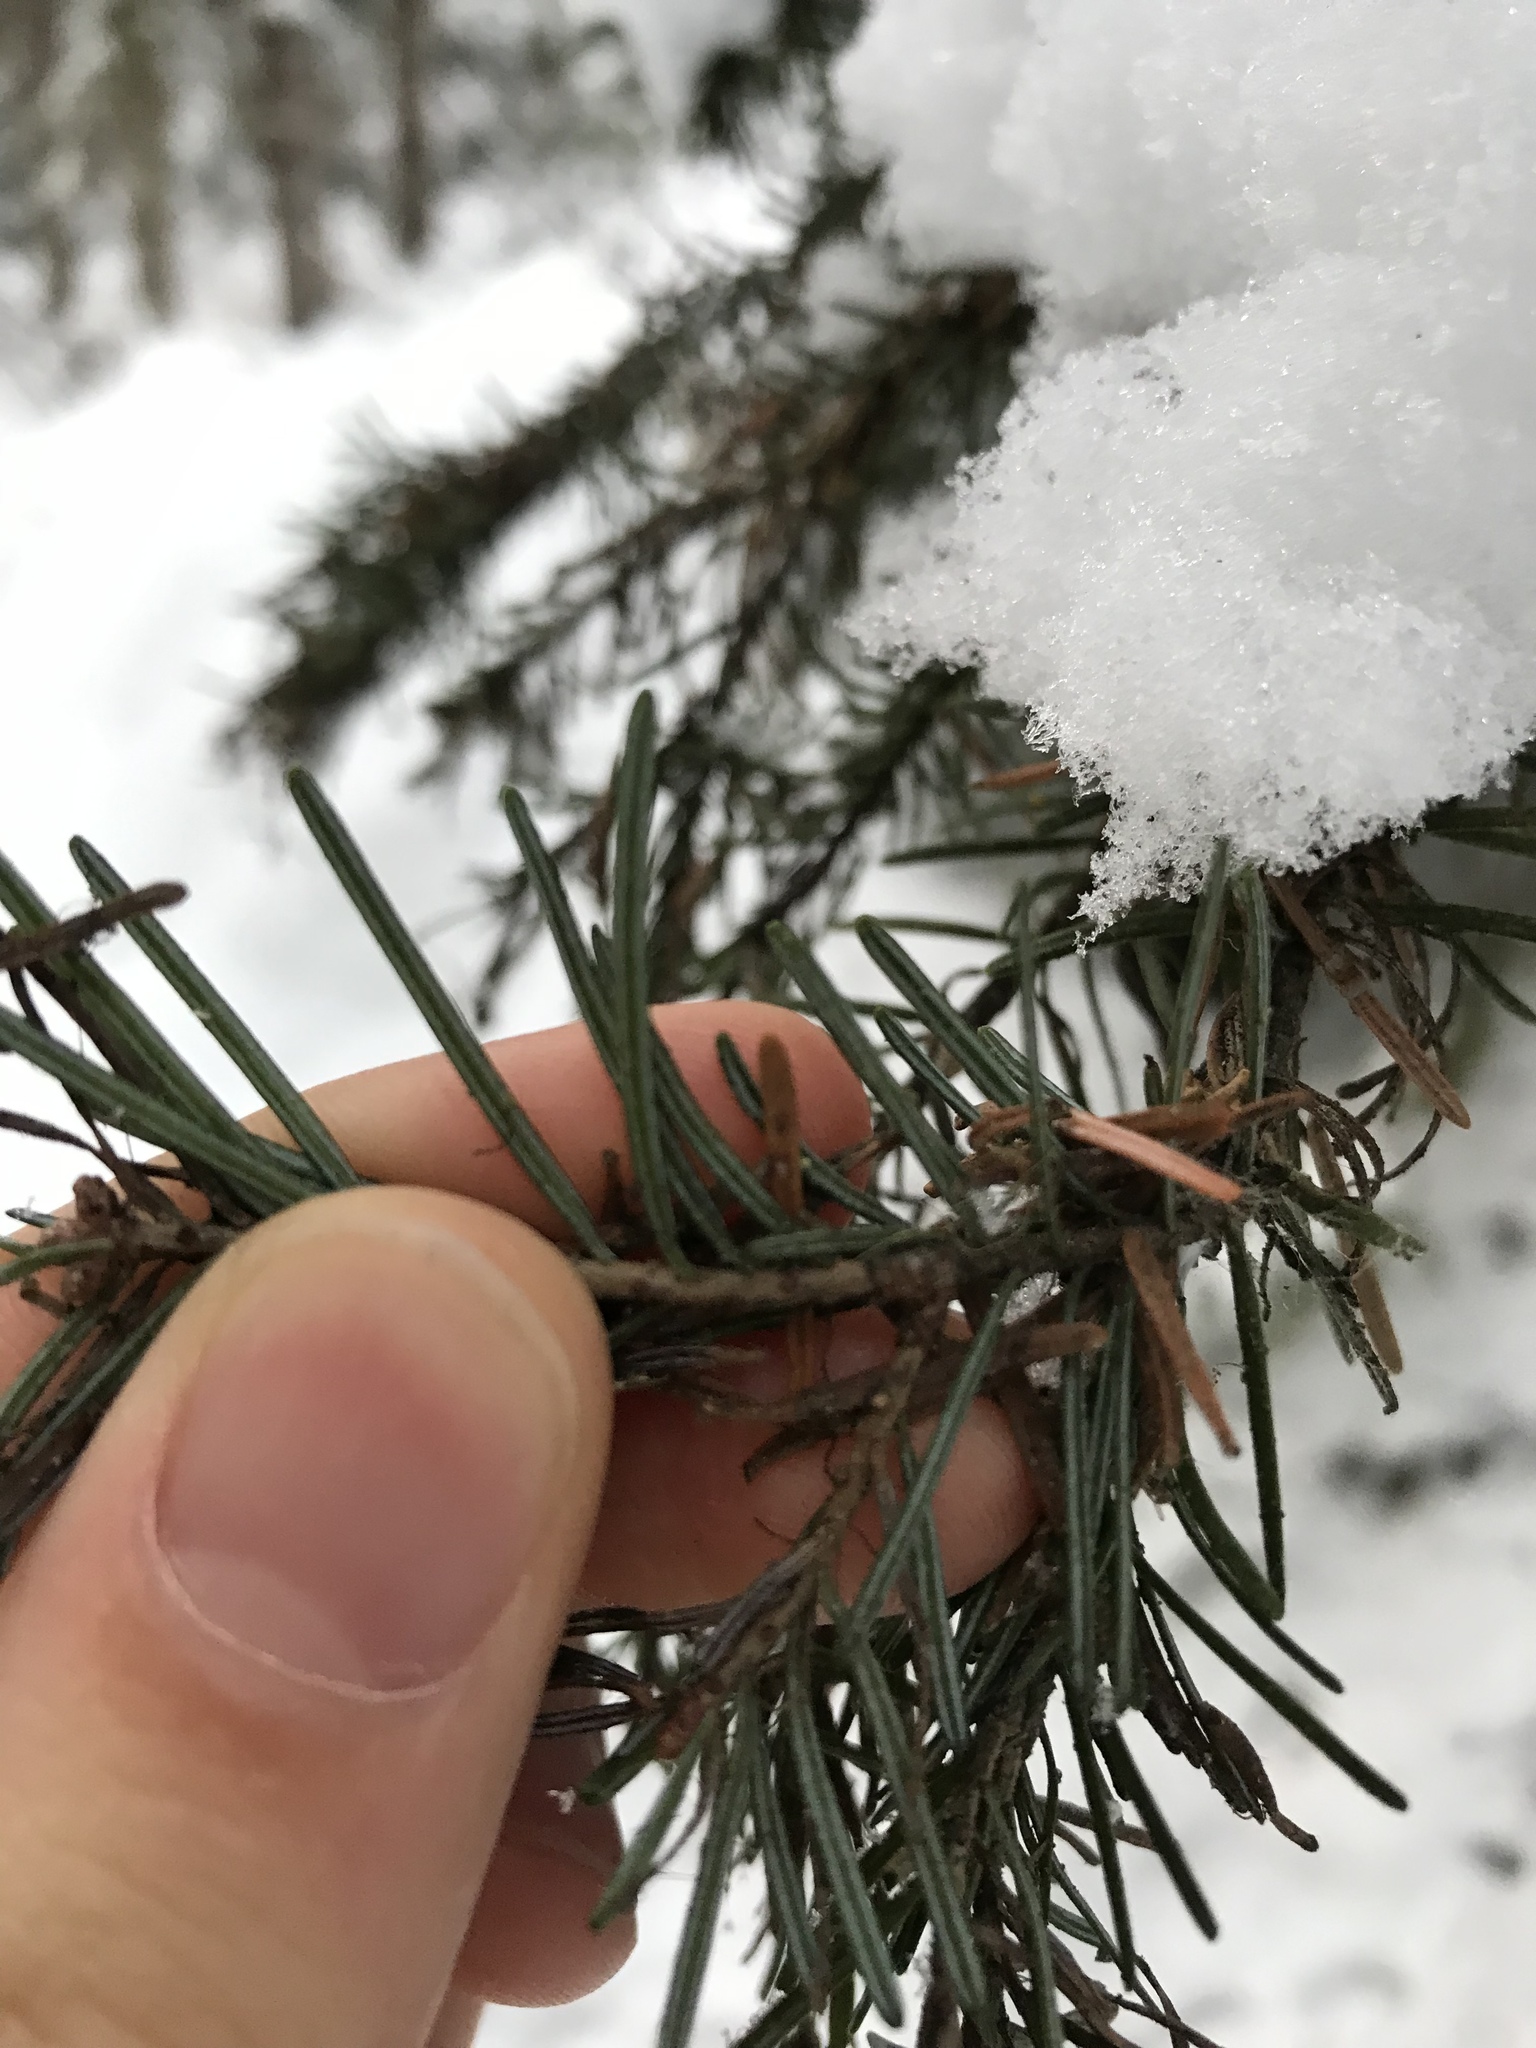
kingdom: Plantae
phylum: Tracheophyta
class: Pinopsida
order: Pinales
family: Pinaceae
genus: Abies
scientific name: Abies lasiocarpa
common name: Subalpine fir
